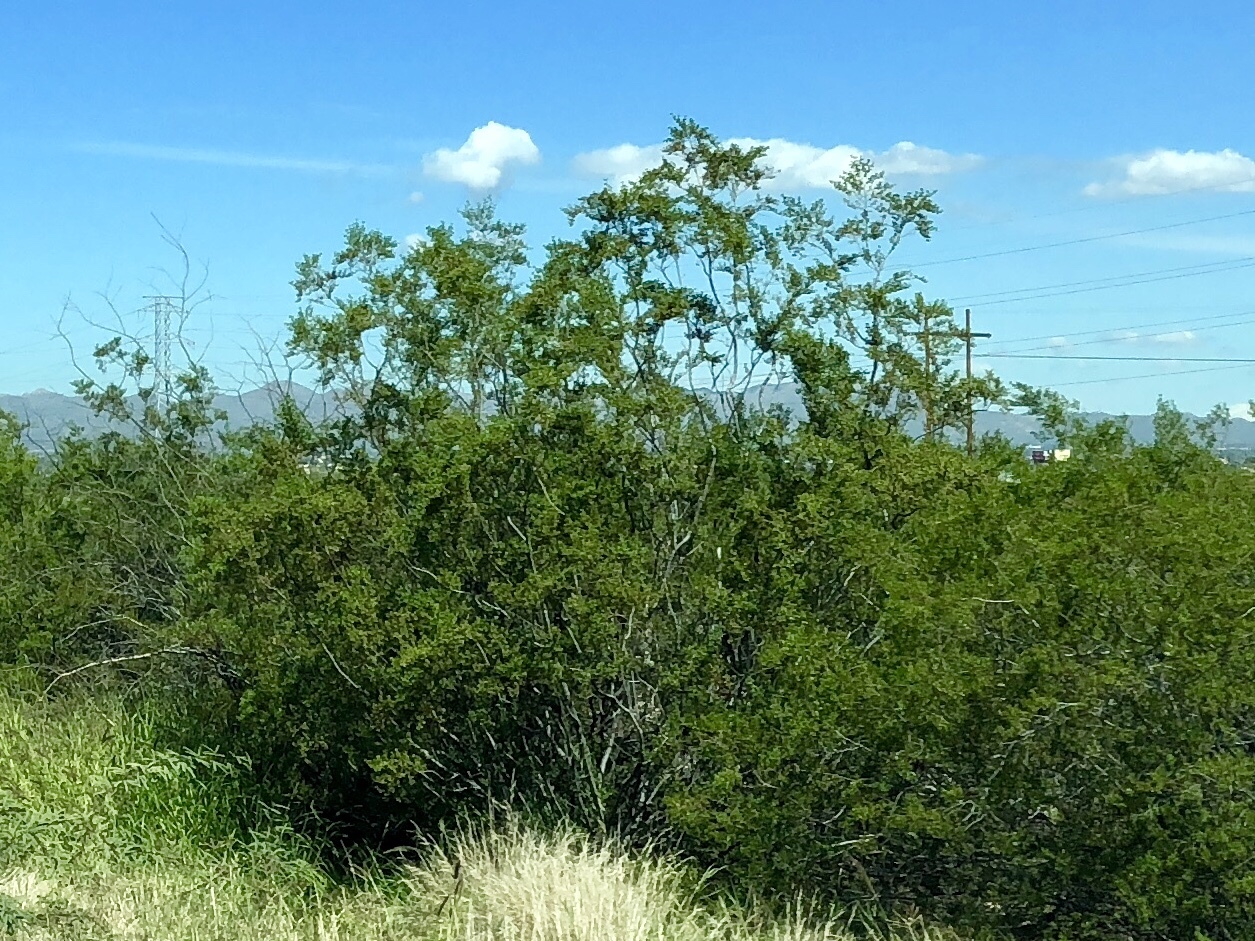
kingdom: Plantae
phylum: Tracheophyta
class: Magnoliopsida
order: Zygophyllales
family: Zygophyllaceae
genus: Larrea
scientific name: Larrea tridentata
